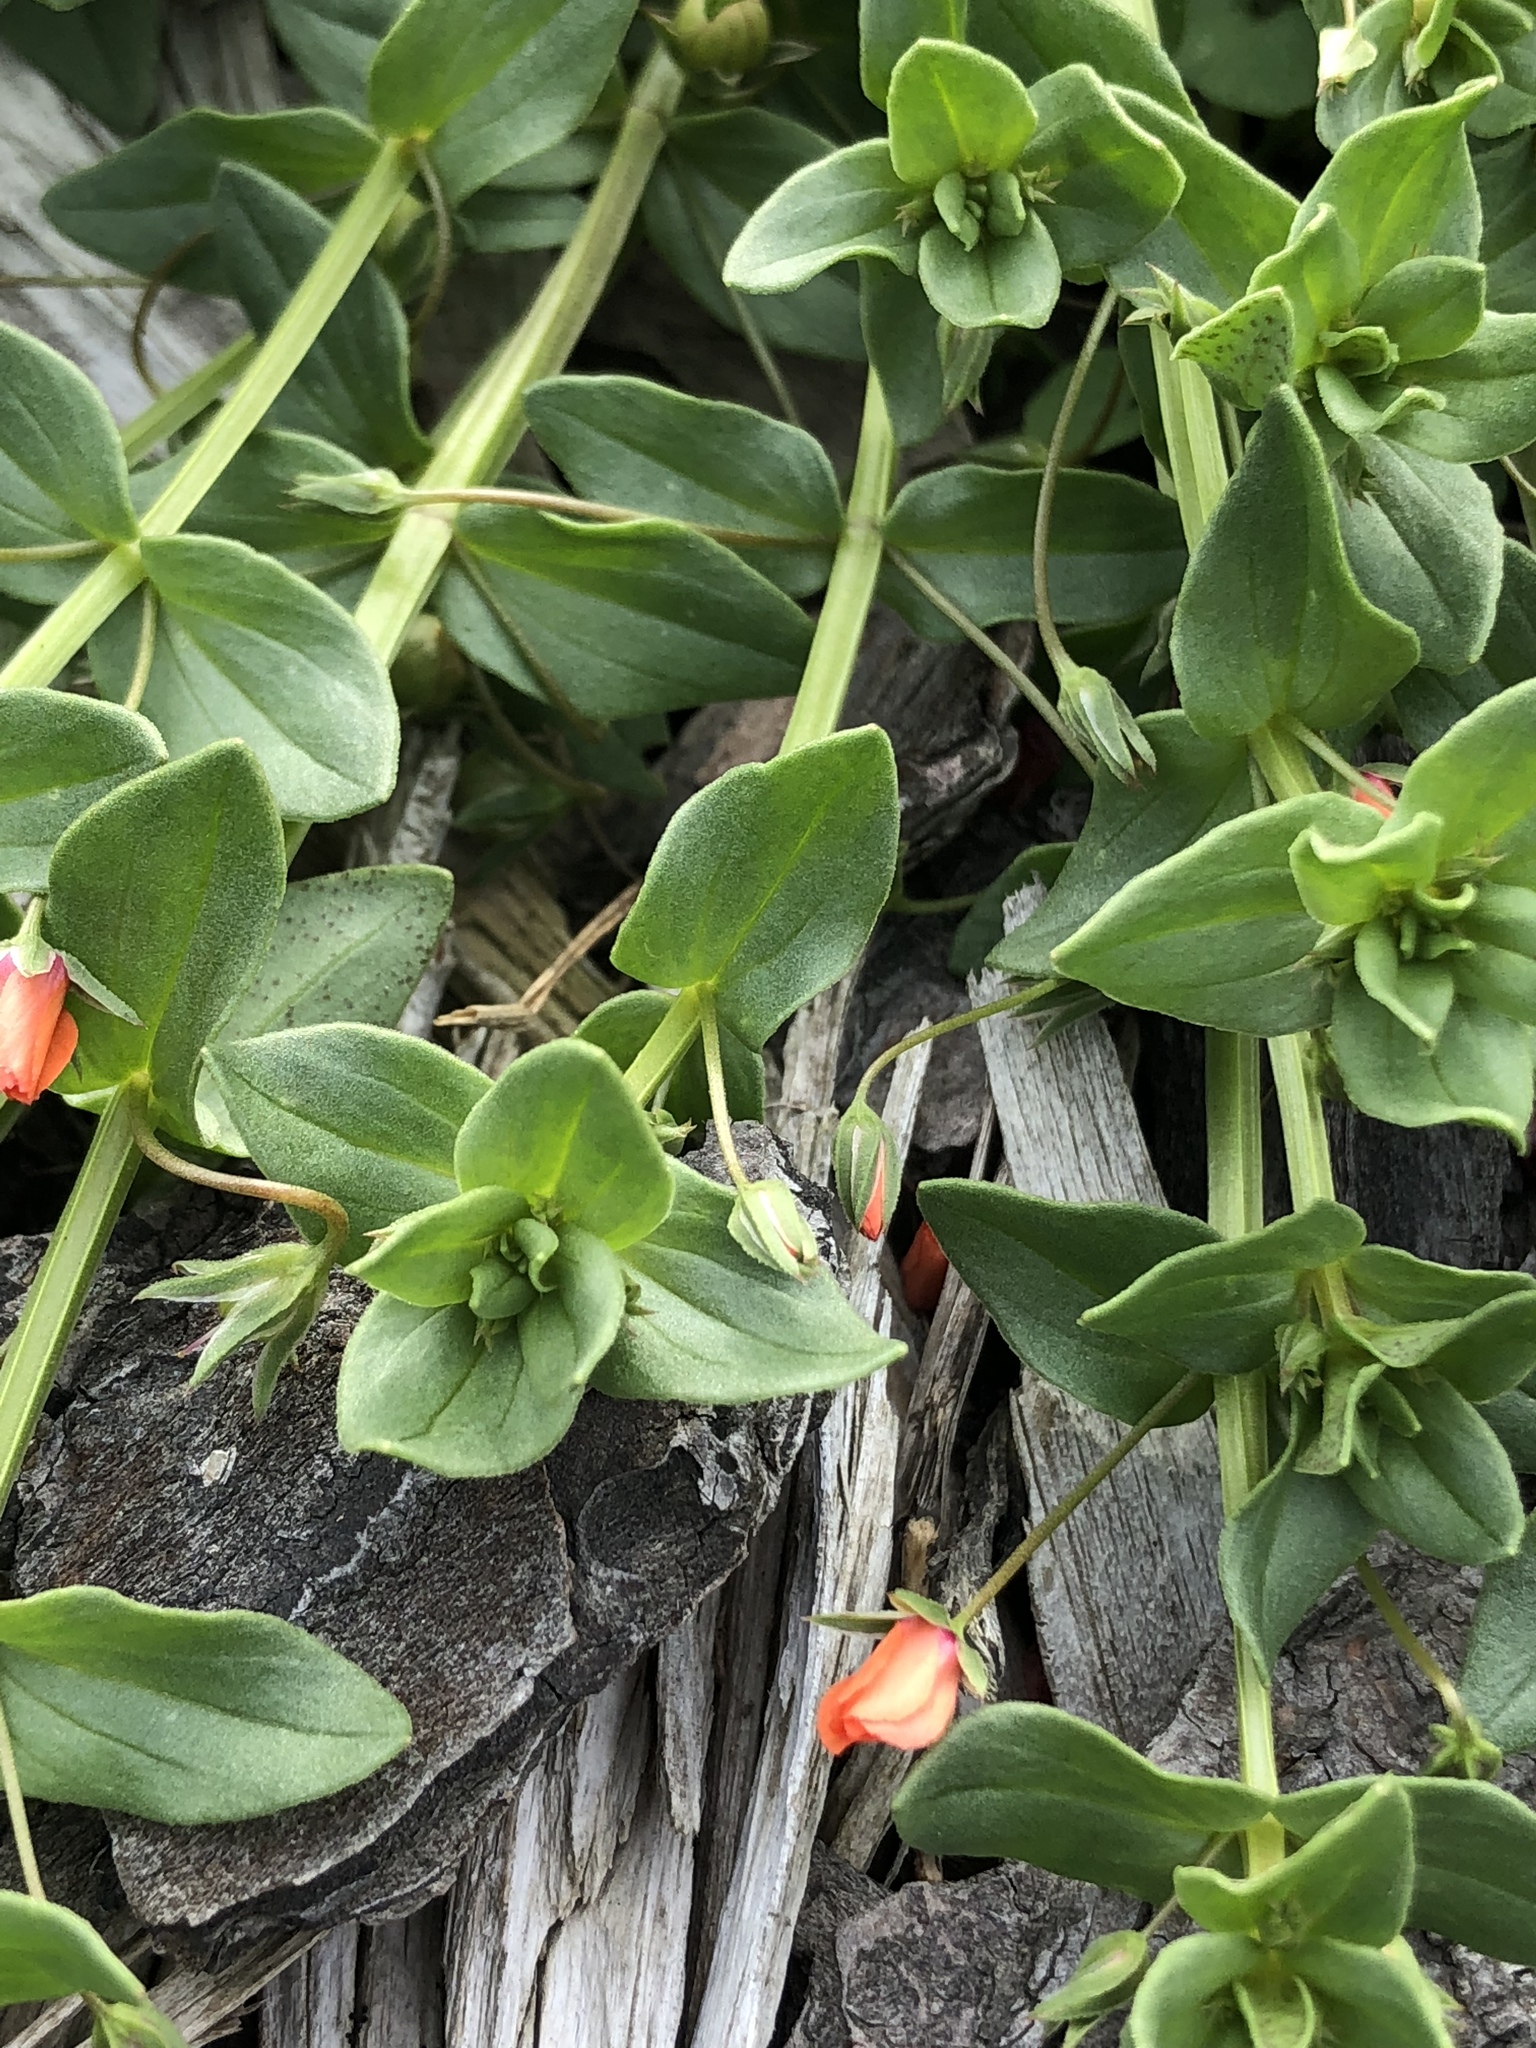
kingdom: Plantae
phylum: Tracheophyta
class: Magnoliopsida
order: Ericales
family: Primulaceae
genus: Lysimachia
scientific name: Lysimachia arvensis
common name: Scarlet pimpernel
